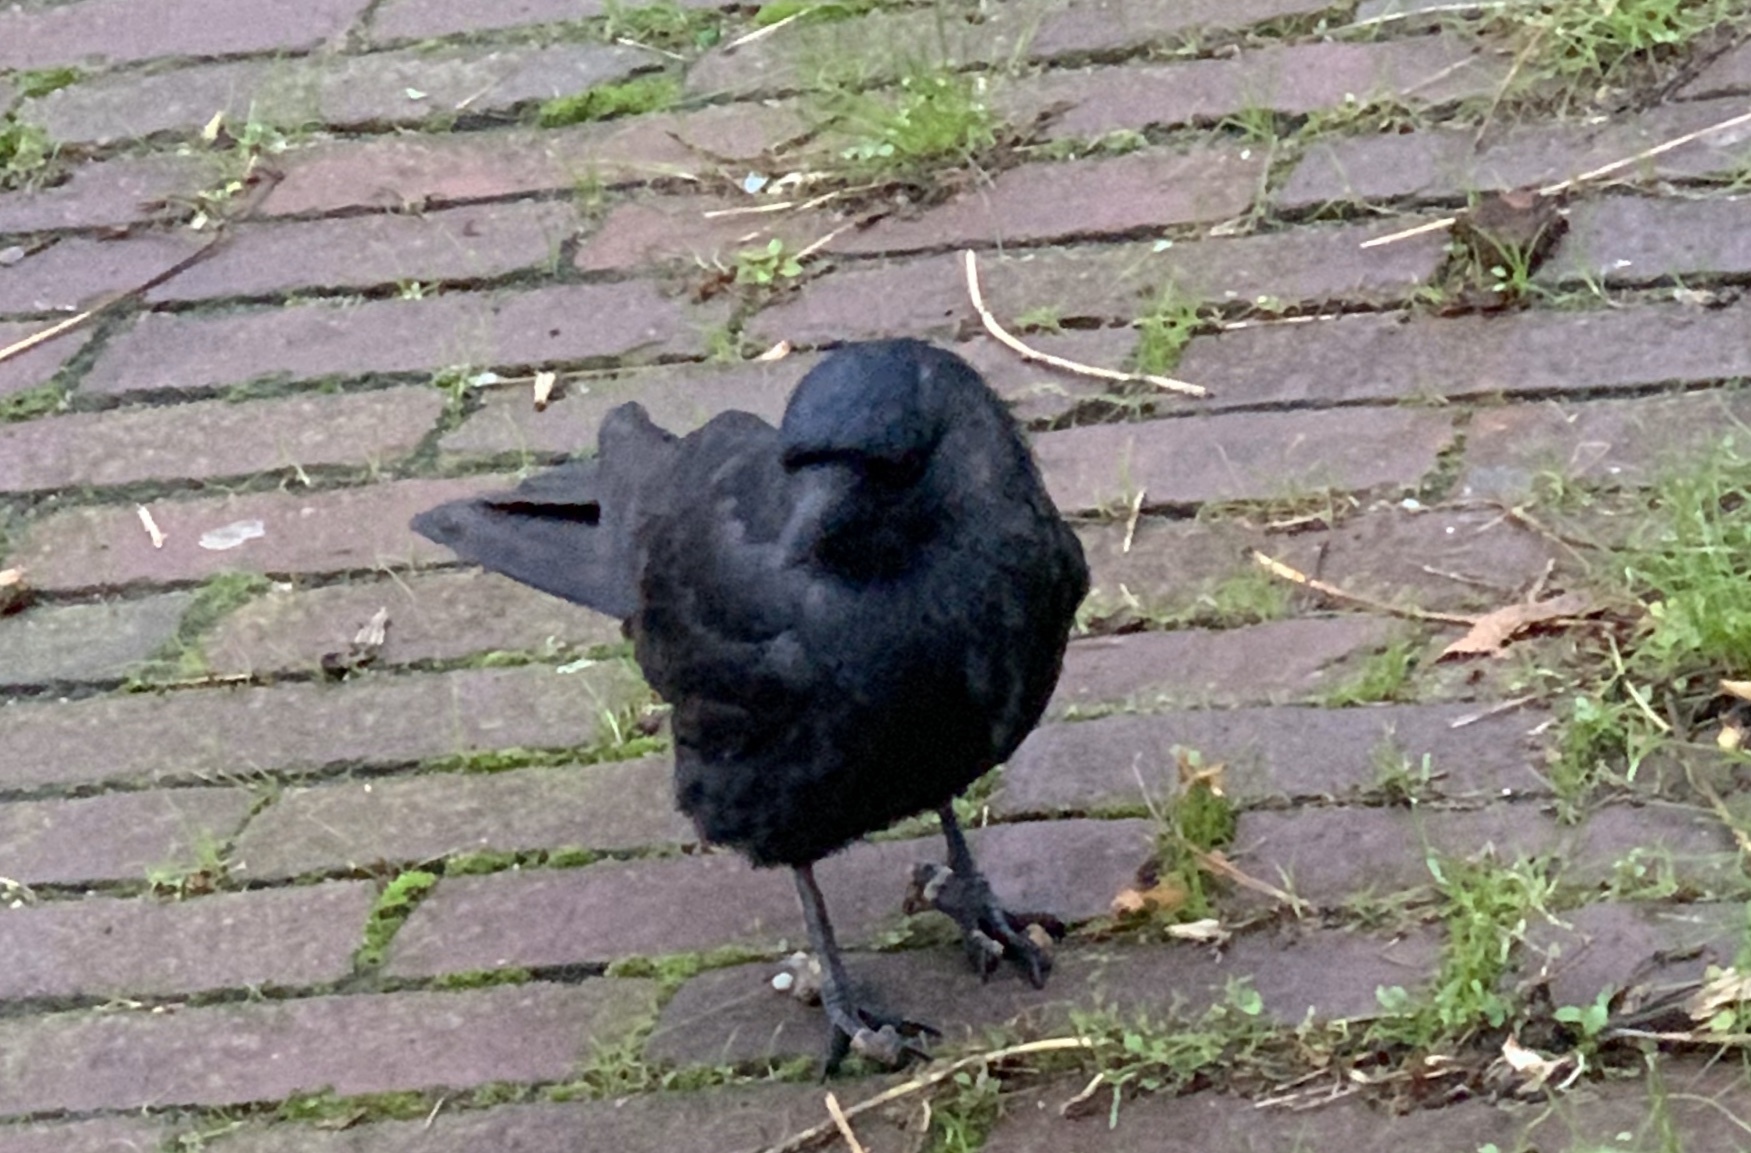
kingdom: Animalia
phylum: Chordata
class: Aves
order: Passeriformes
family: Corvidae
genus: Coloeus
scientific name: Coloeus monedula
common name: Western jackdaw
